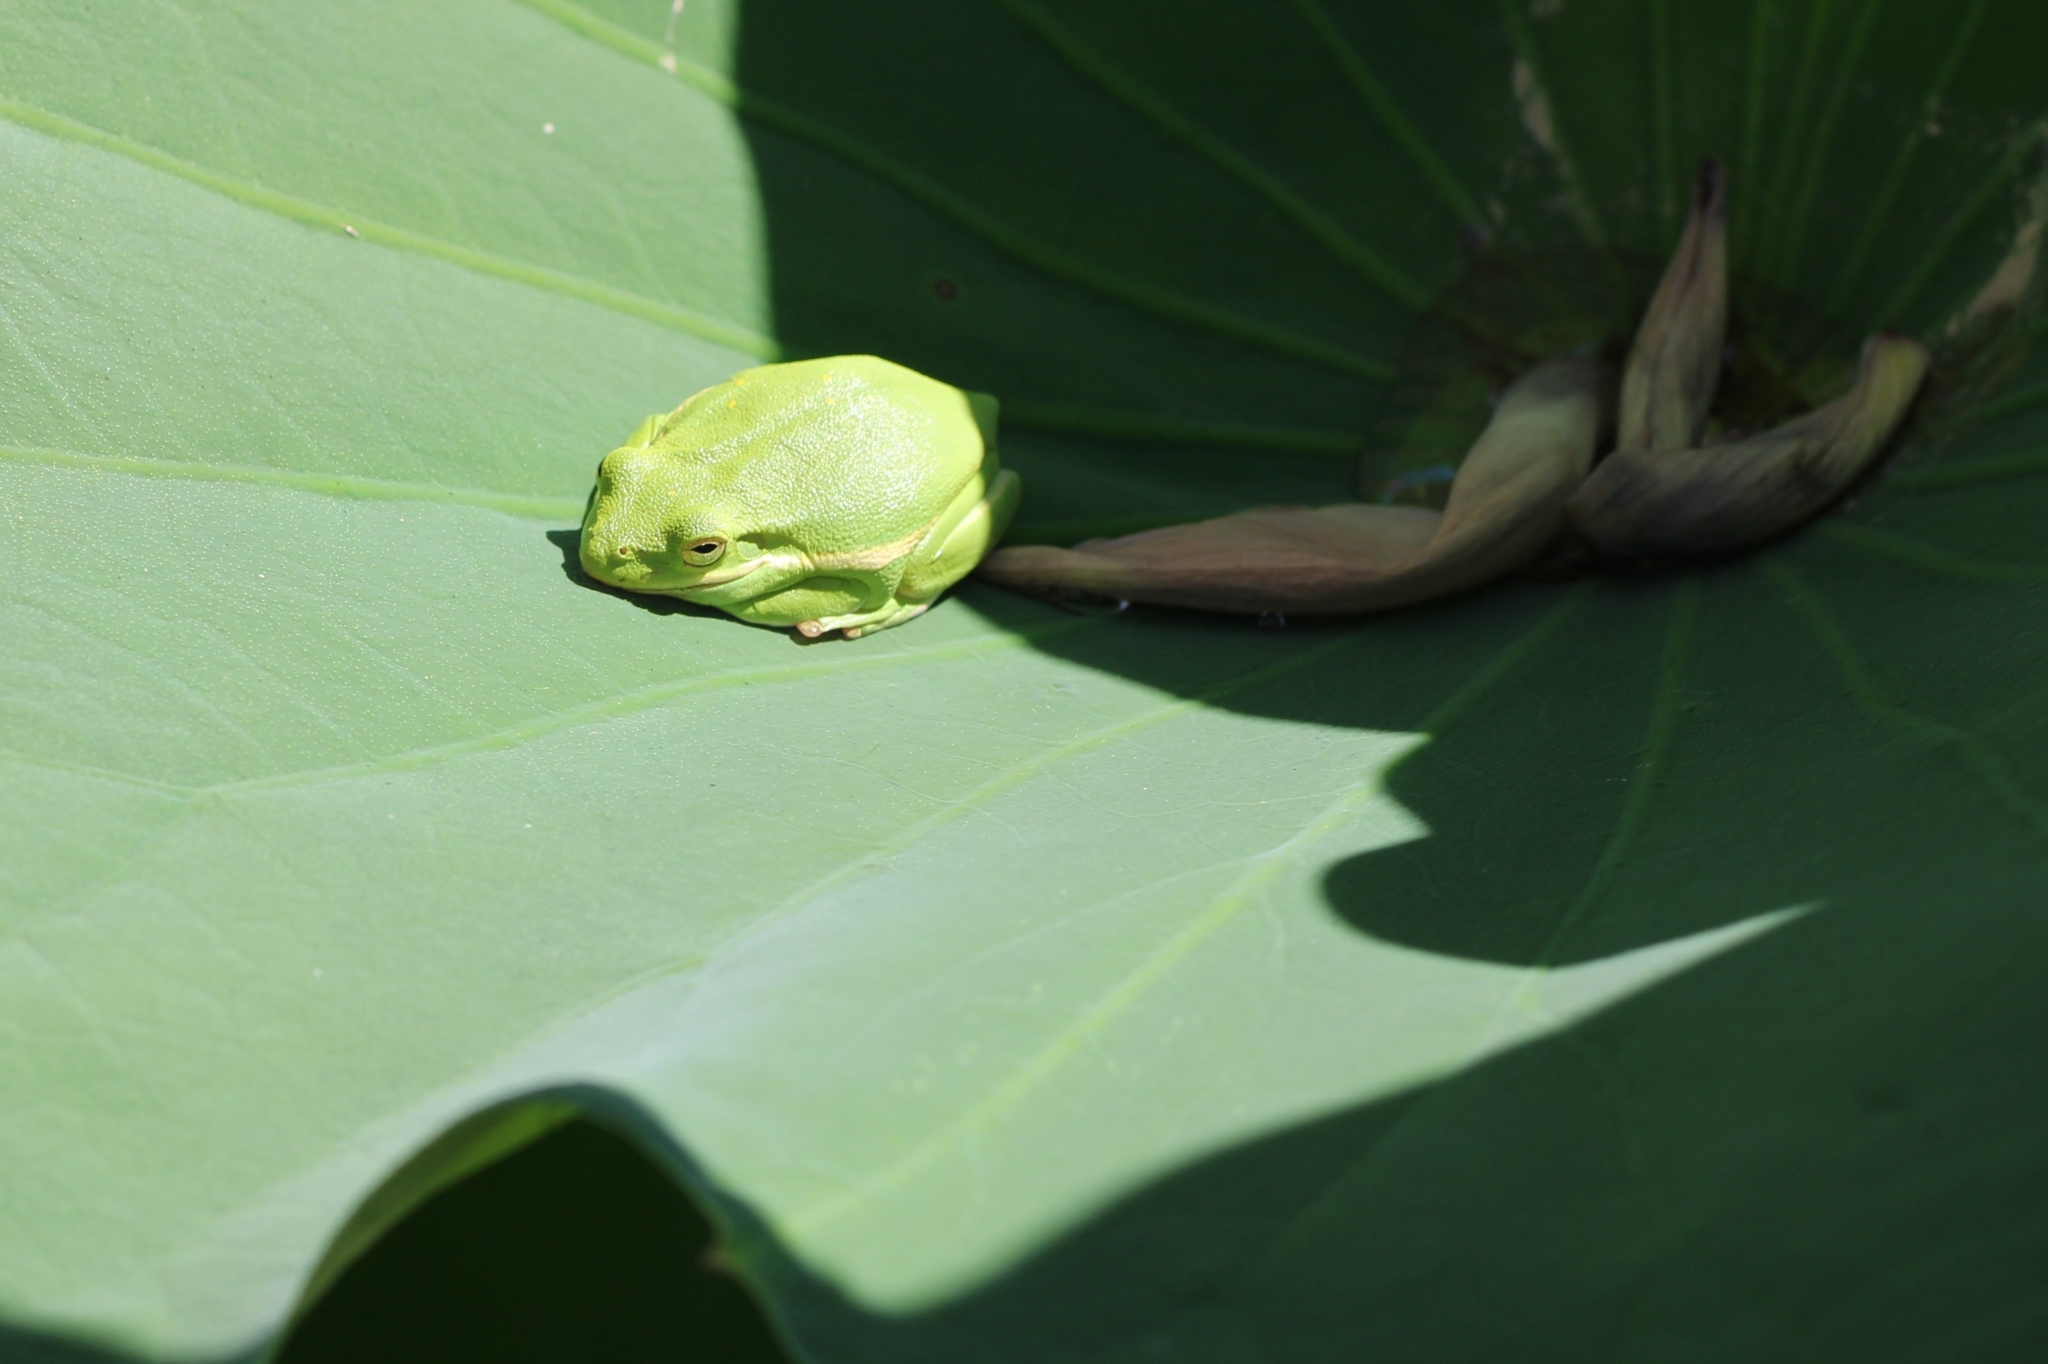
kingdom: Animalia
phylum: Chordata
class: Amphibia
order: Anura
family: Hylidae
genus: Dryophytes
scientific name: Dryophytes cinereus
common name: Green treefrog
